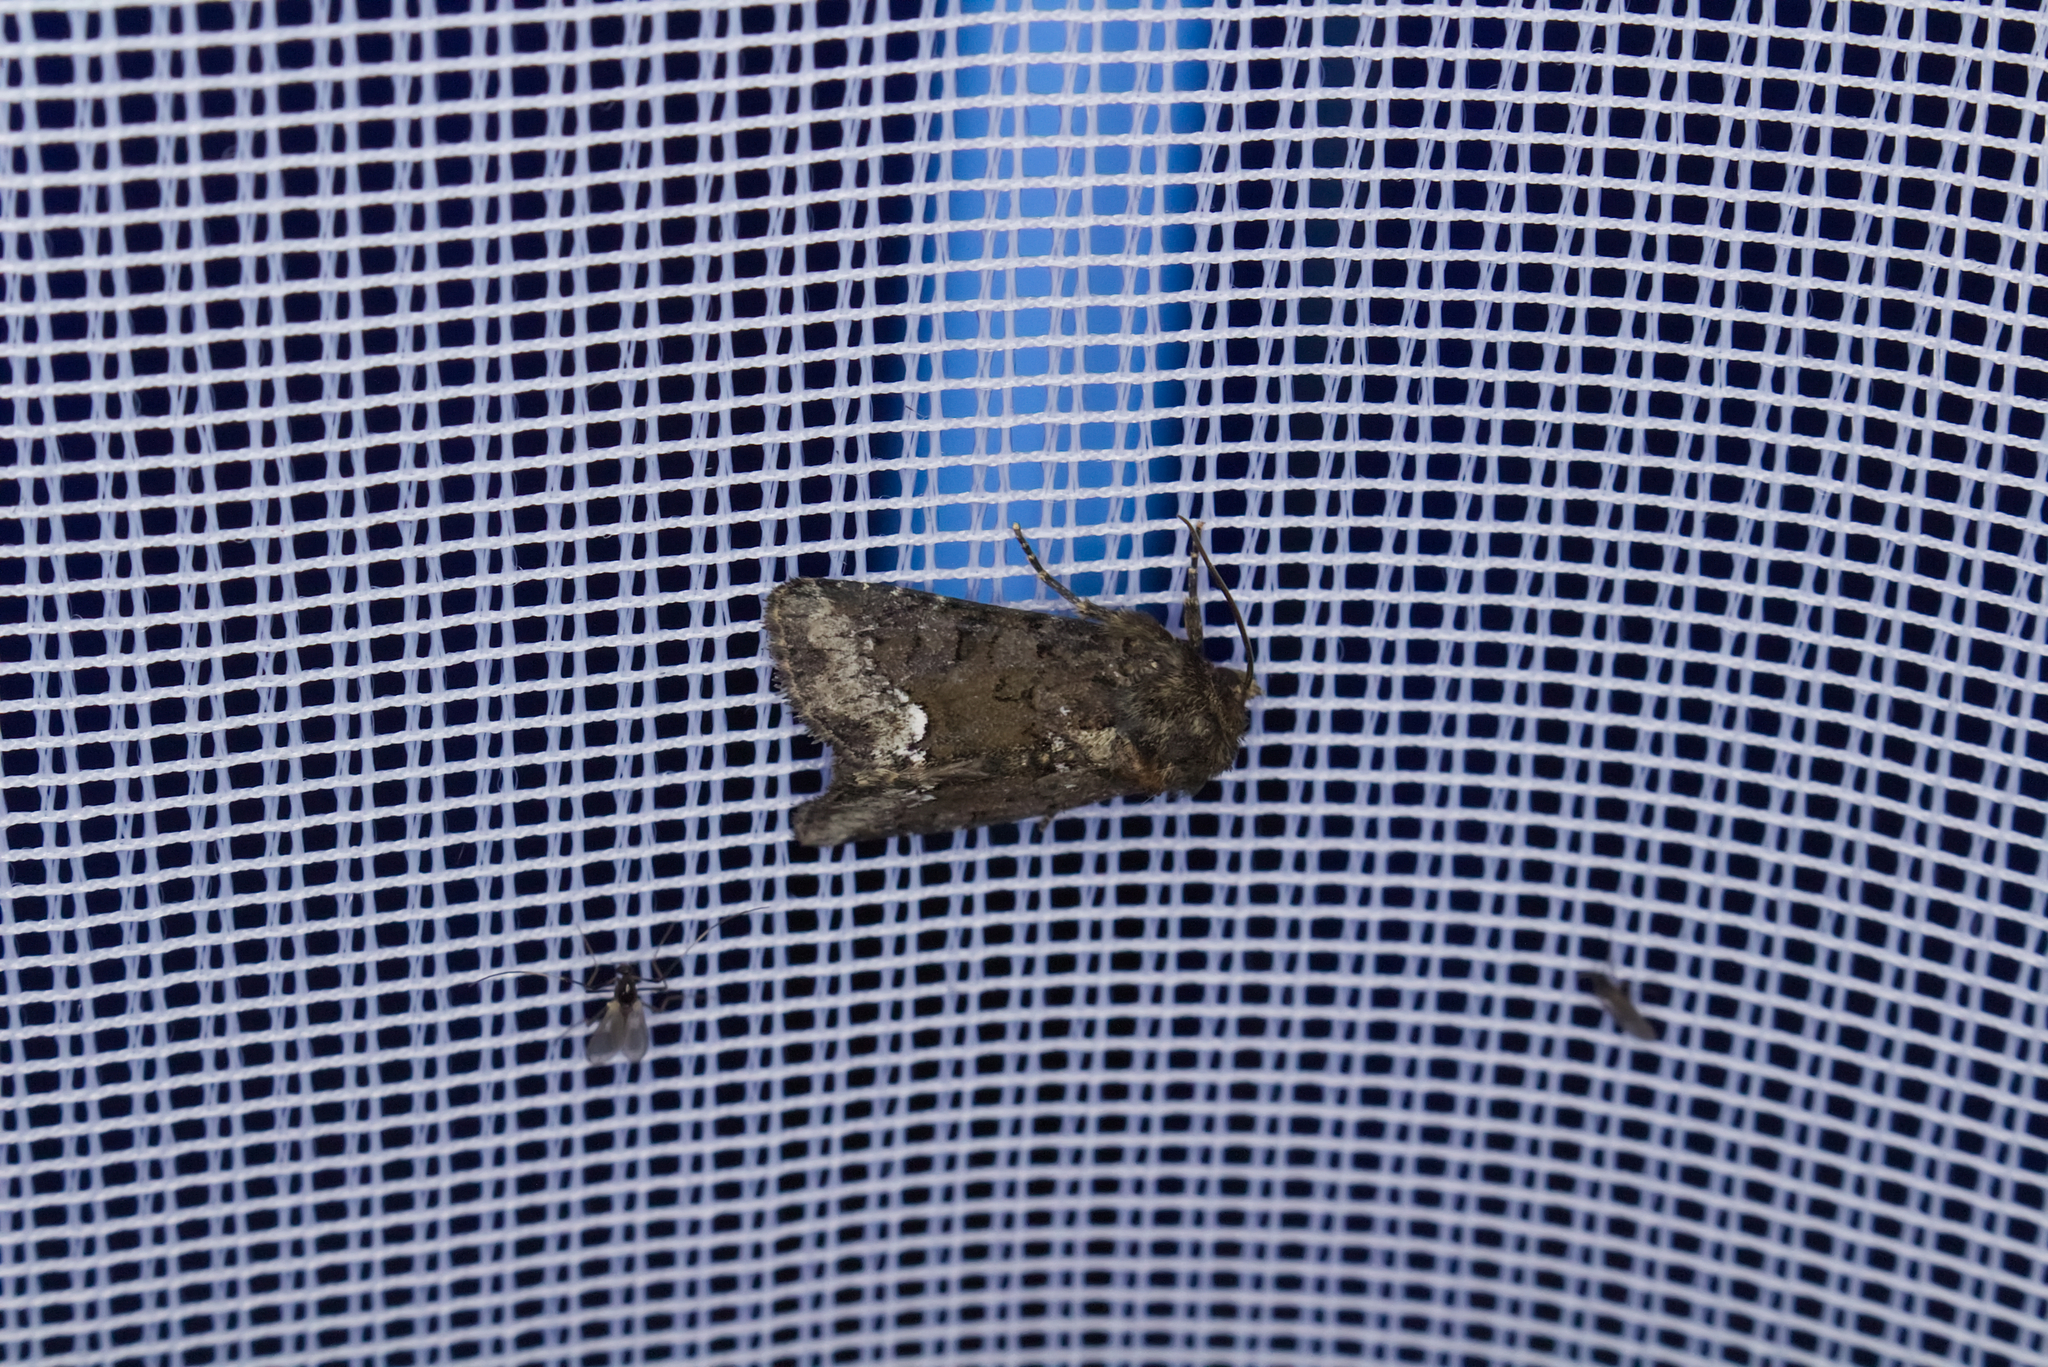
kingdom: Animalia
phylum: Arthropoda
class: Insecta
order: Lepidoptera
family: Noctuidae
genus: Oligia
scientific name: Oligia strigilis
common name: Marbled minor
